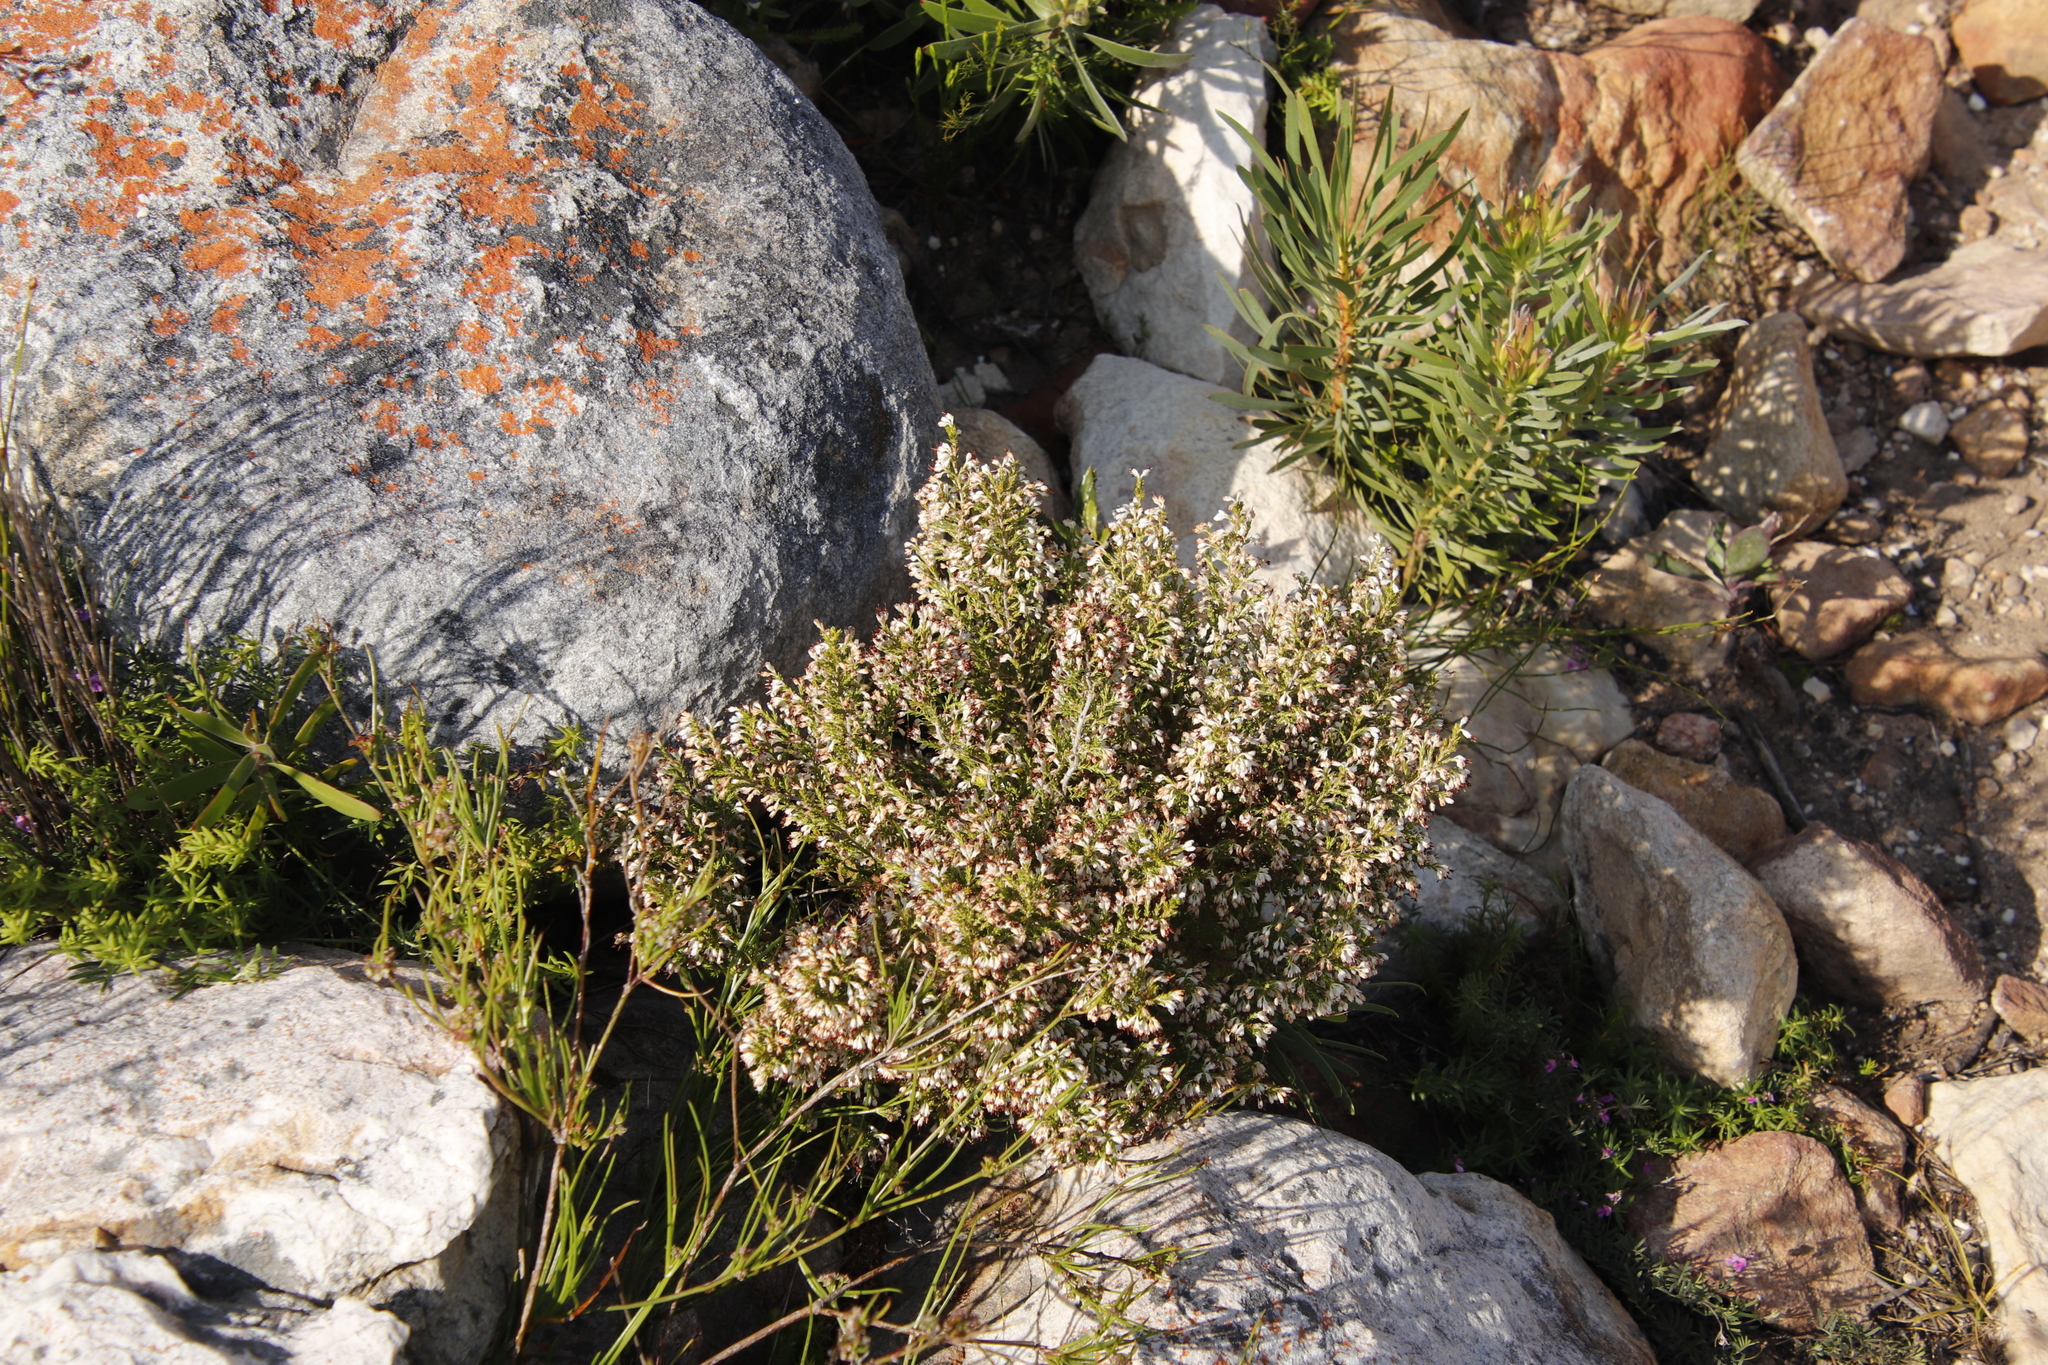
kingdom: Plantae
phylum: Tracheophyta
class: Magnoliopsida
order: Ericales
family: Ericaceae
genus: Erica
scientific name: Erica imbricata
